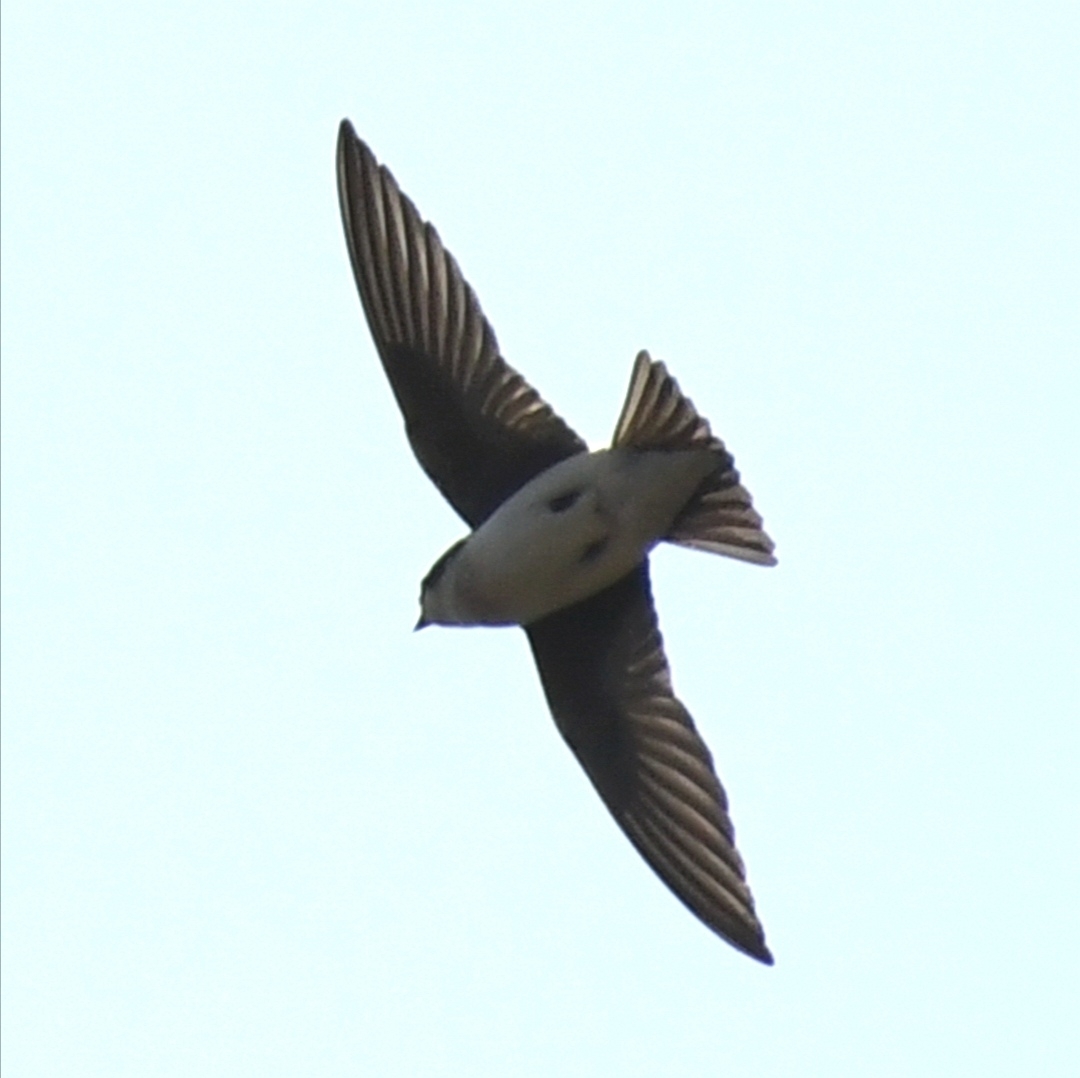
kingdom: Animalia
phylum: Chordata
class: Aves
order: Passeriformes
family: Hirundinidae
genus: Tachycineta
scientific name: Tachycineta bicolor
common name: Tree swallow
